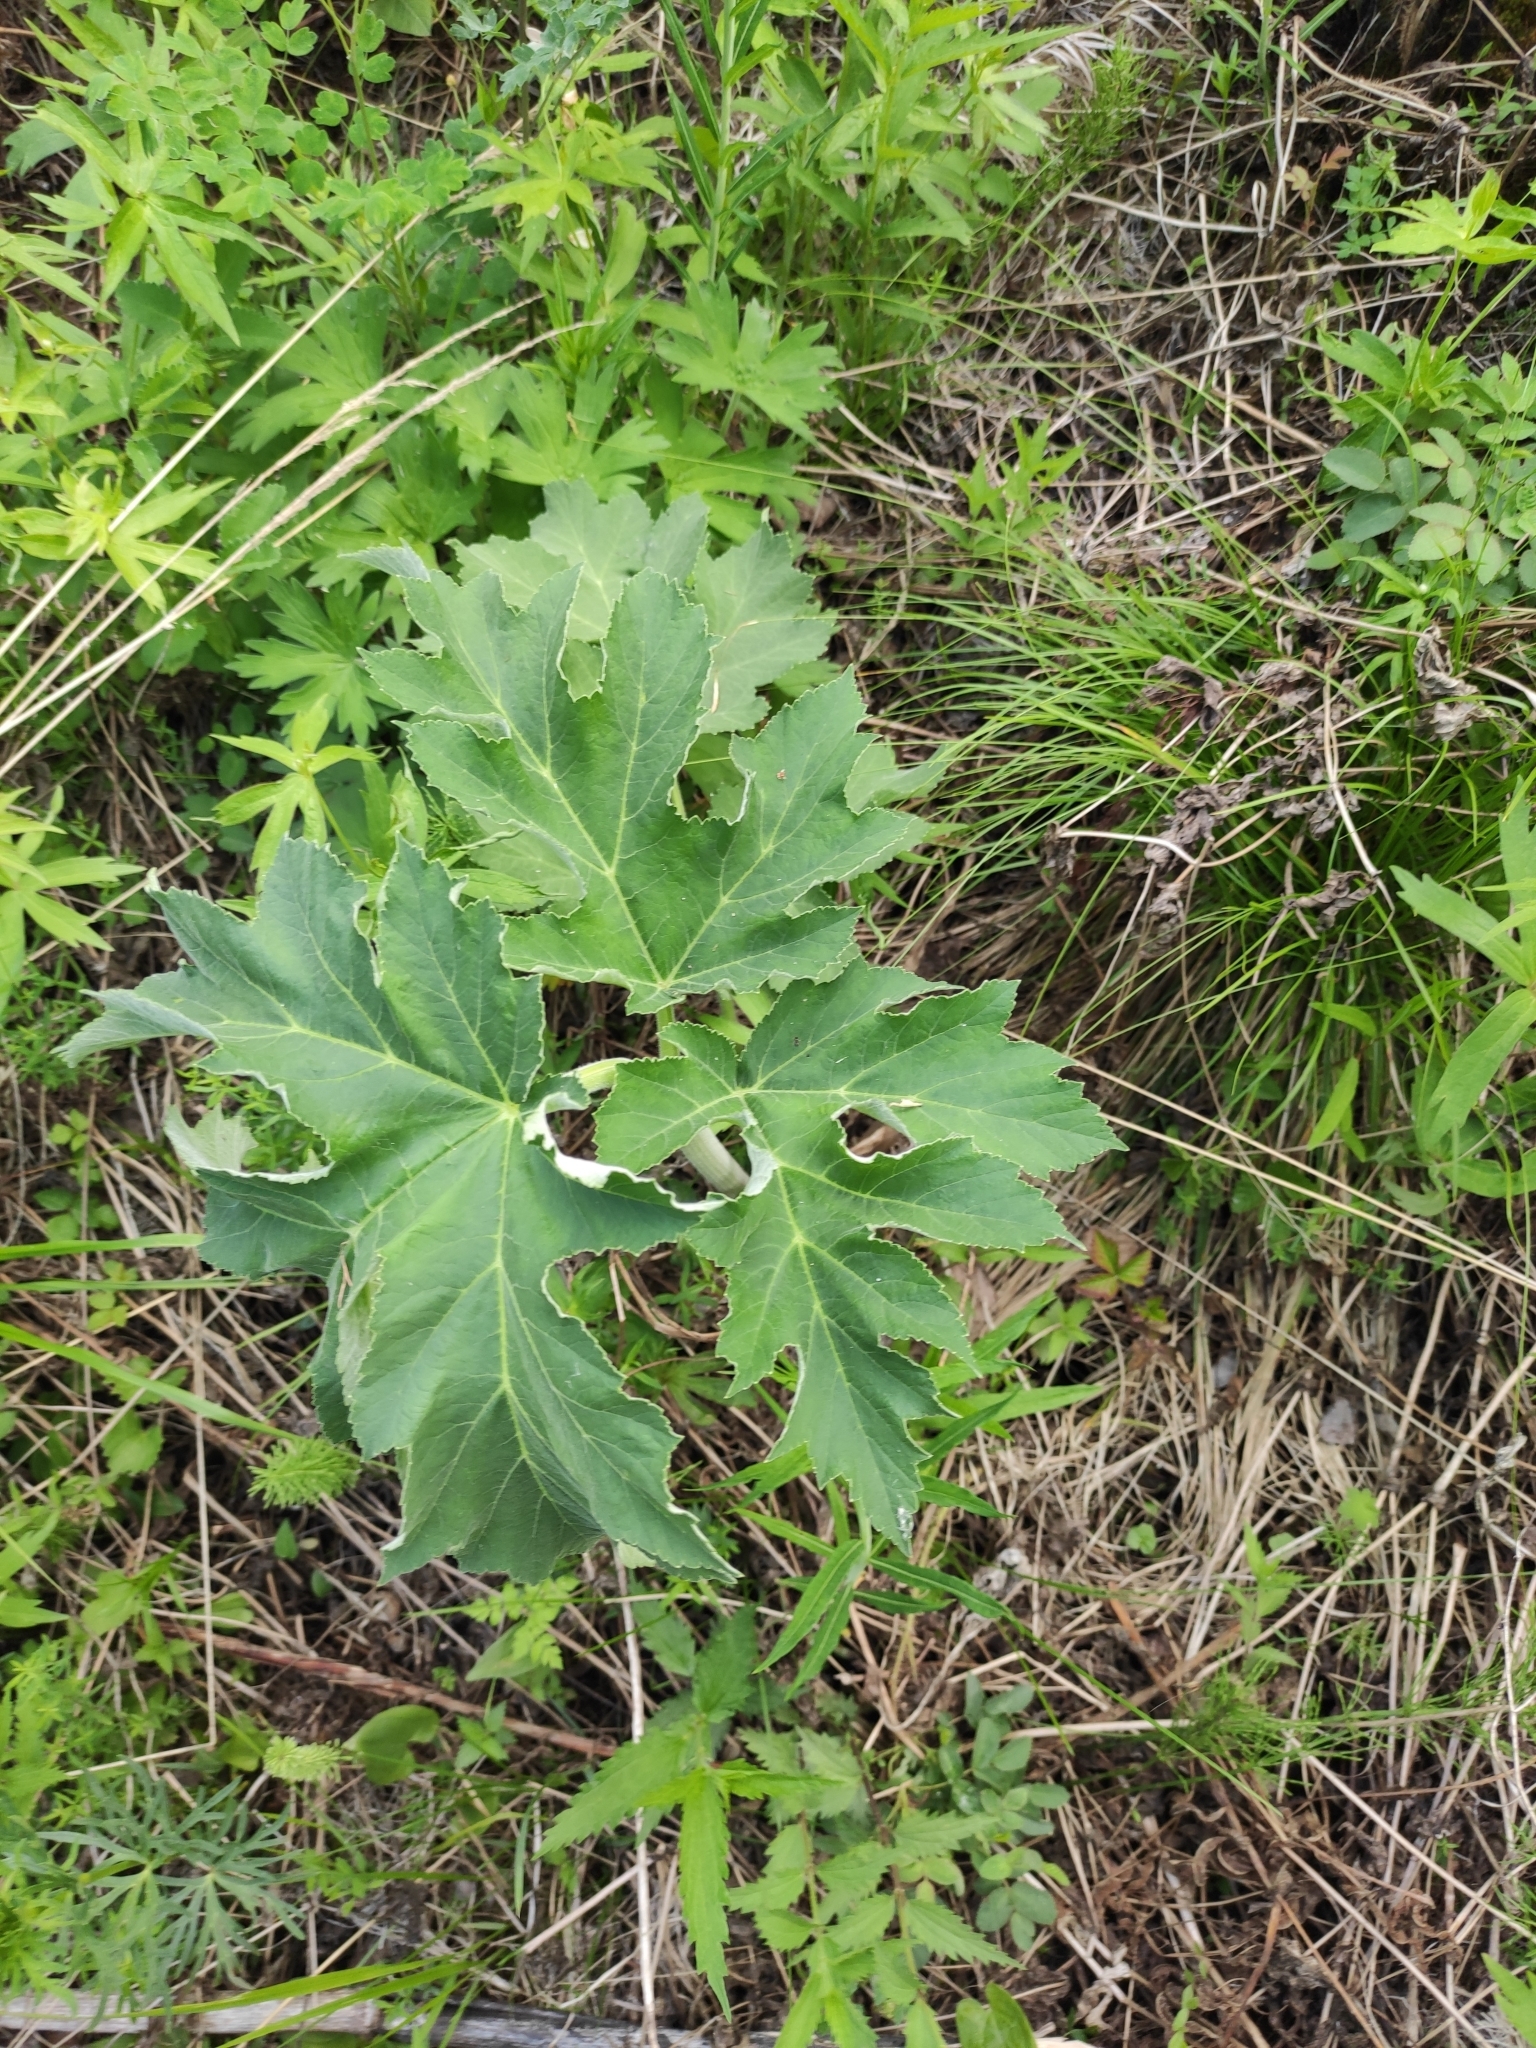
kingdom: Plantae
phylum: Tracheophyta
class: Magnoliopsida
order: Apiales
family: Apiaceae
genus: Heracleum
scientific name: Heracleum dissectum
